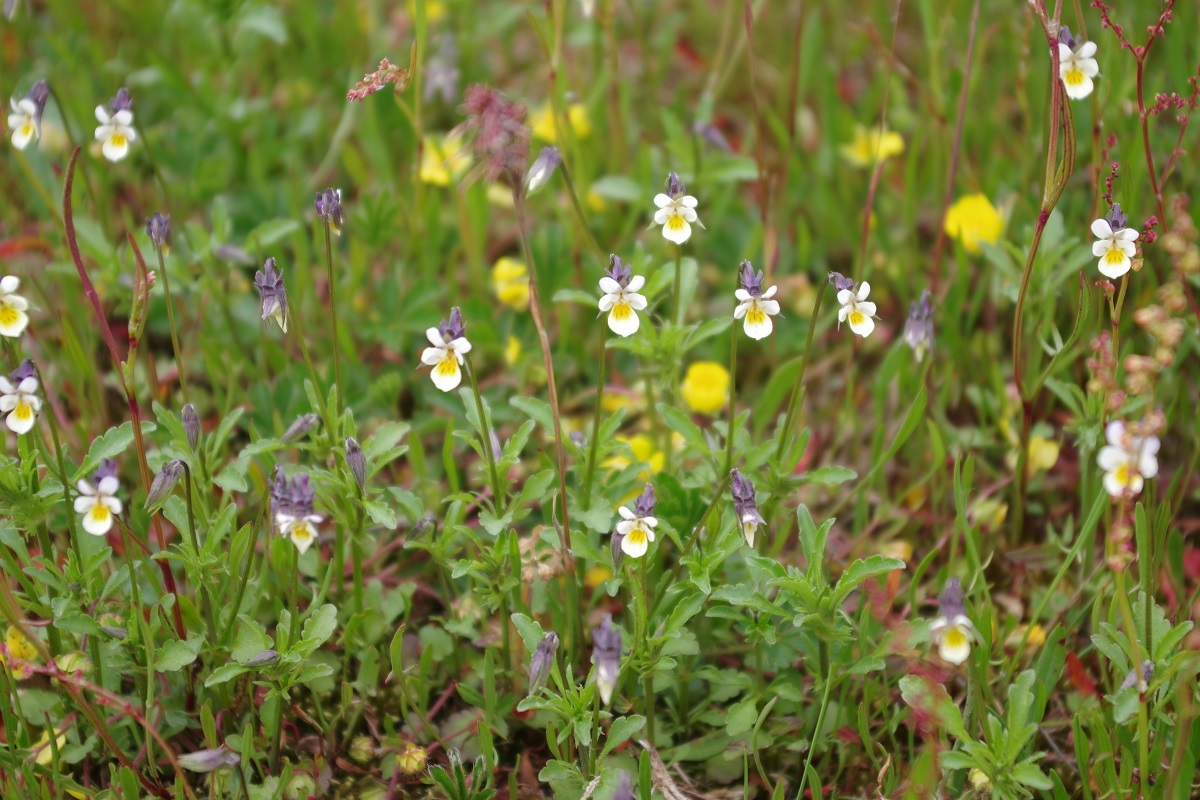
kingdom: Plantae
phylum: Tracheophyta
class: Magnoliopsida
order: Malpighiales
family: Violaceae
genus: Viola
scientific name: Viola arvensis
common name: Field pansy
